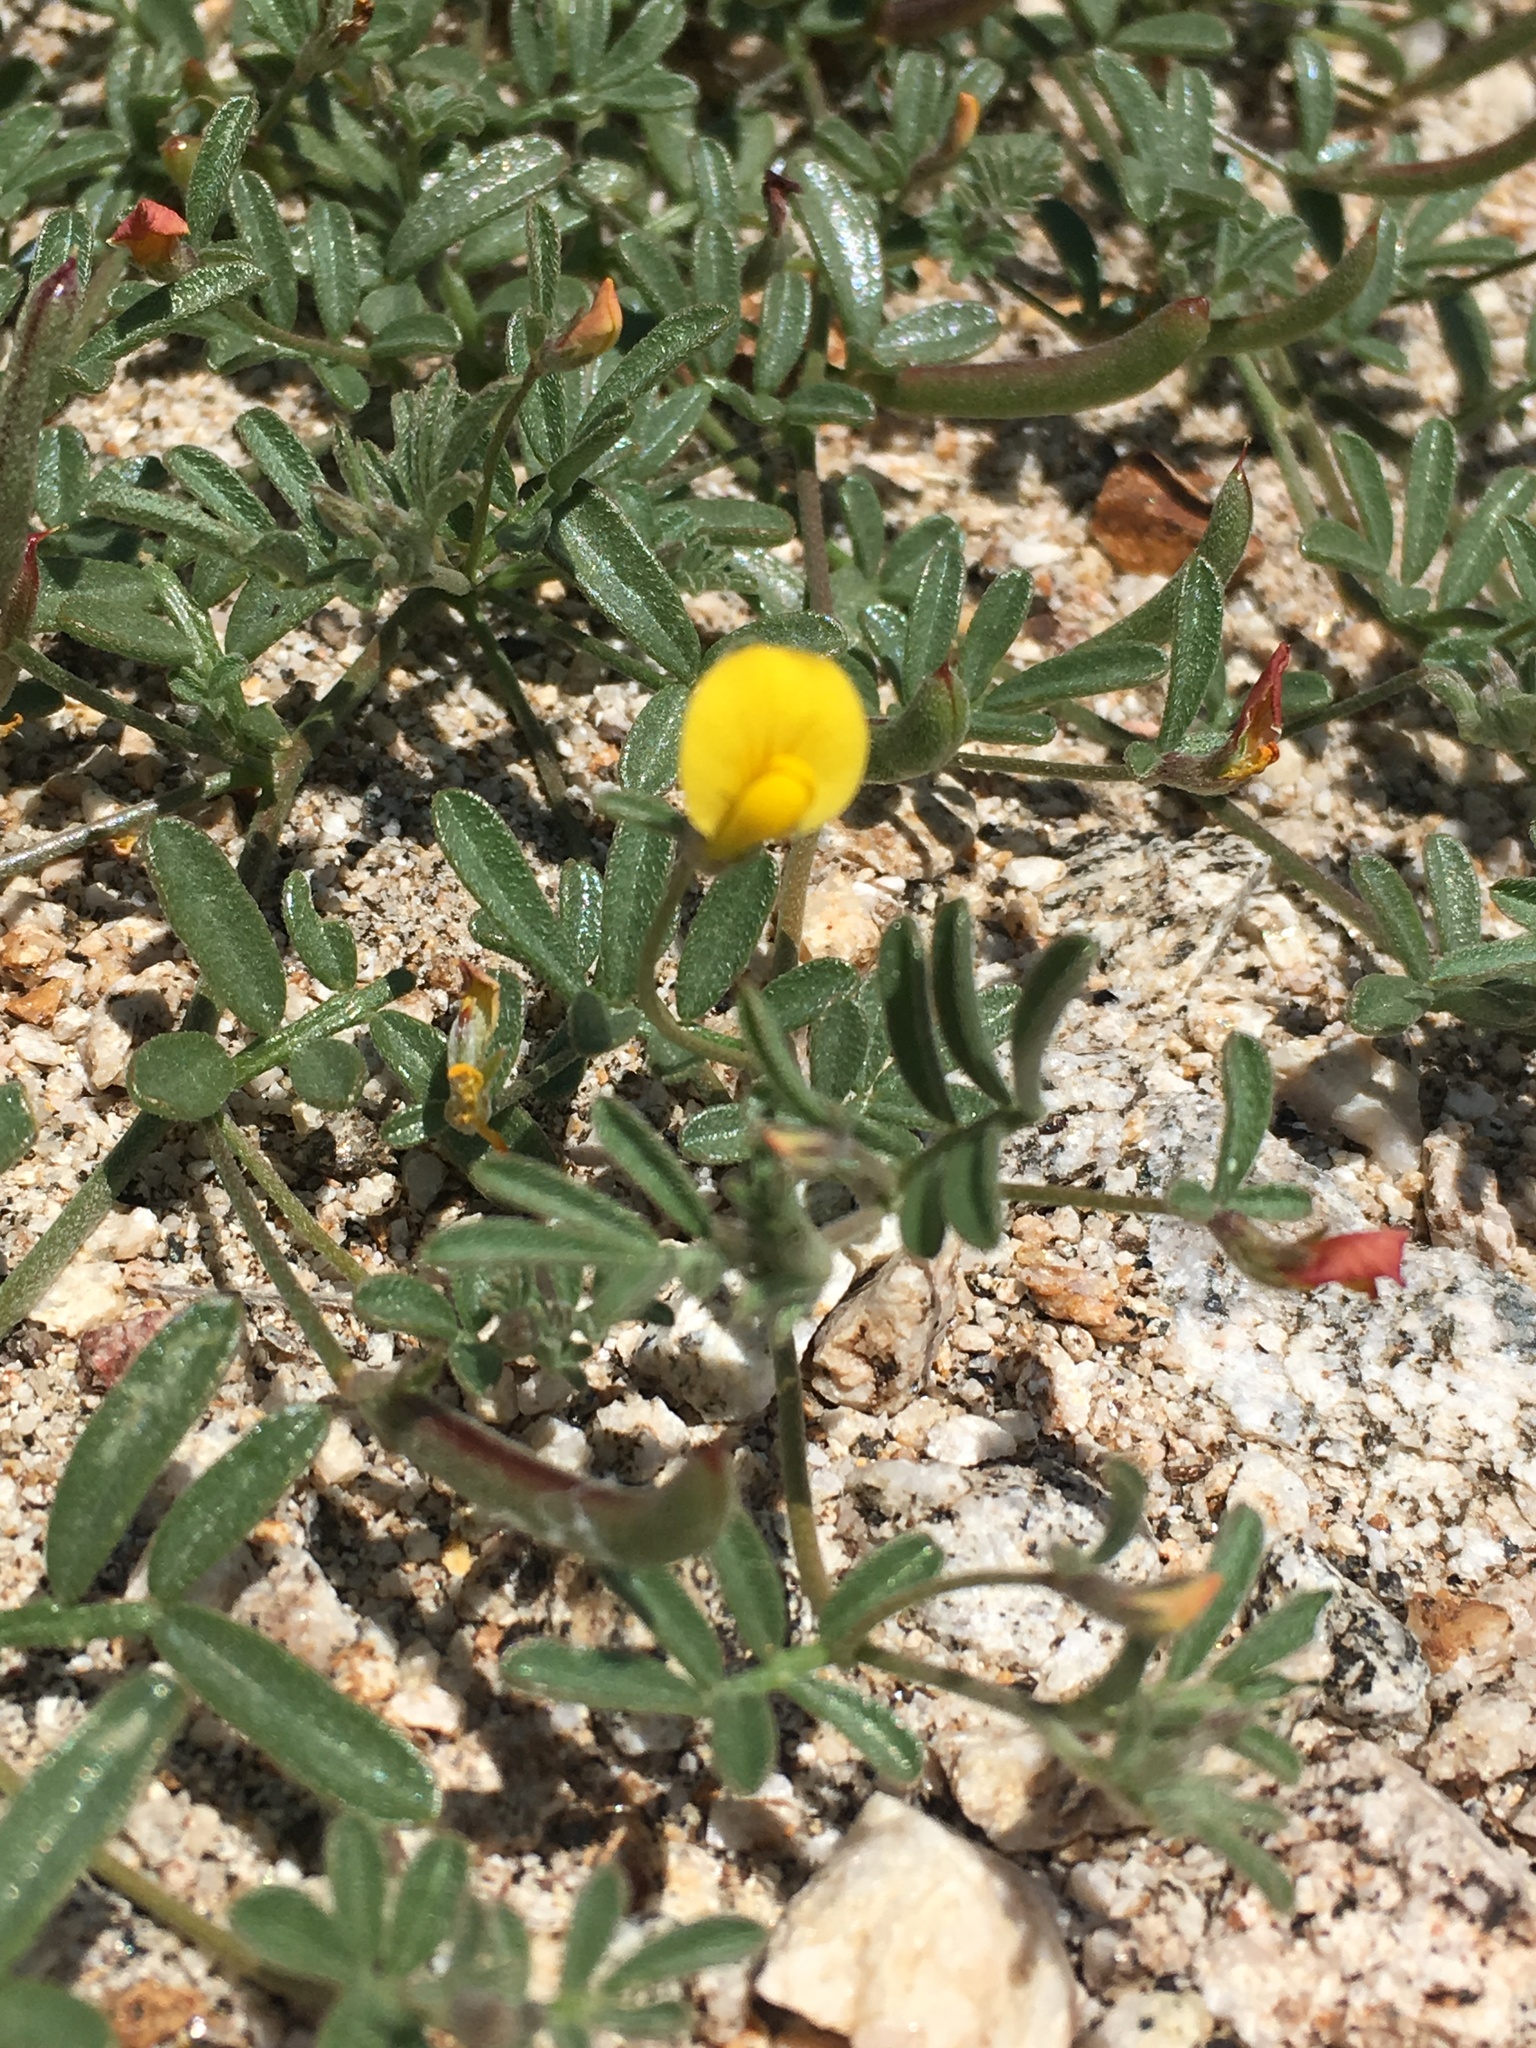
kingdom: Plantae
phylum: Tracheophyta
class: Magnoliopsida
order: Fabales
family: Fabaceae
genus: Acmispon
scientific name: Acmispon strigosus
